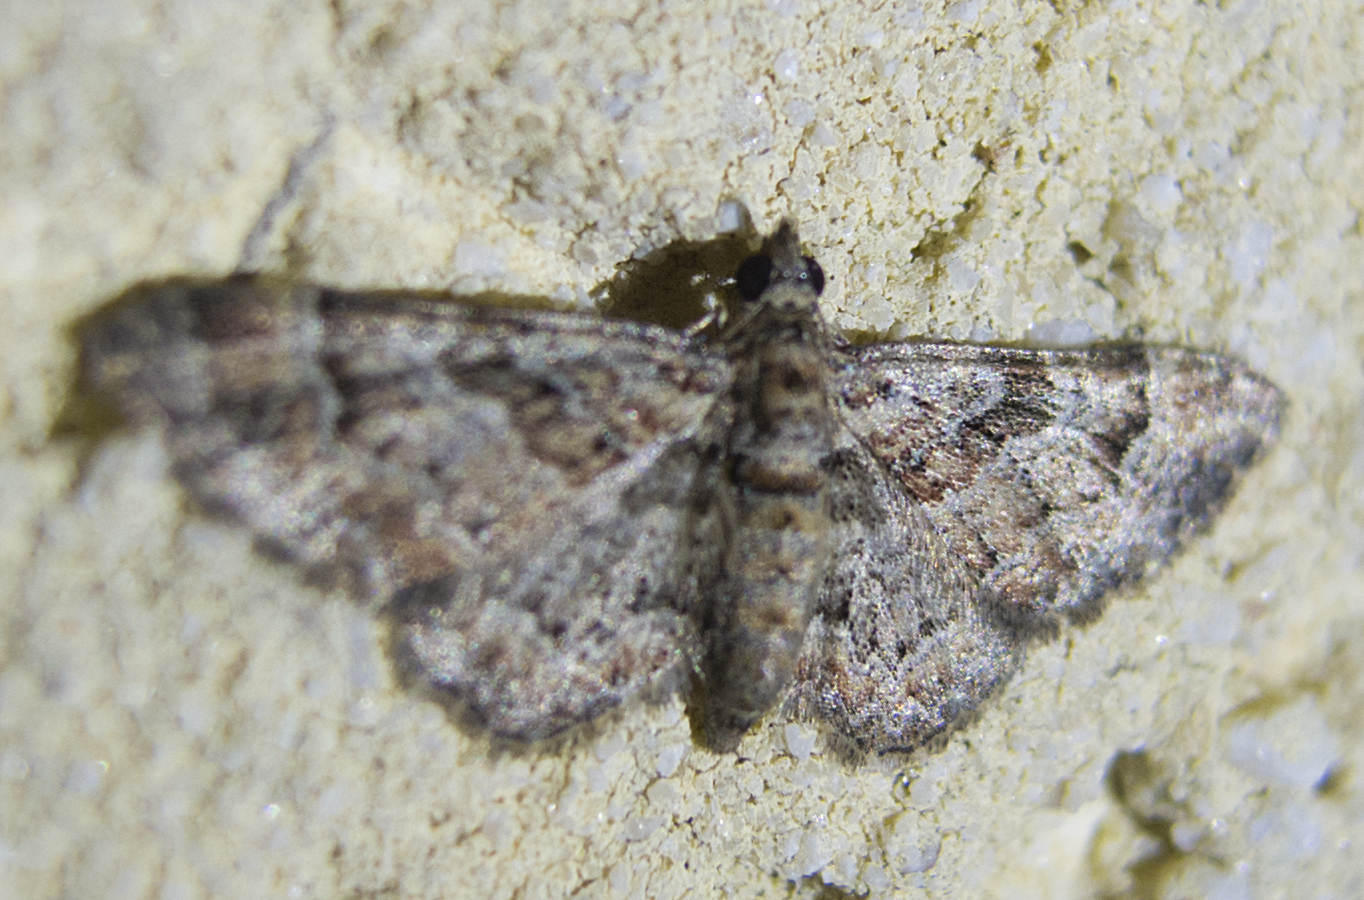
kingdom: Animalia
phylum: Arthropoda
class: Insecta
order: Lepidoptera
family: Geometridae
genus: Gymnoscelis
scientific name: Gymnoscelis rufifasciata
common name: Double-striped pug
